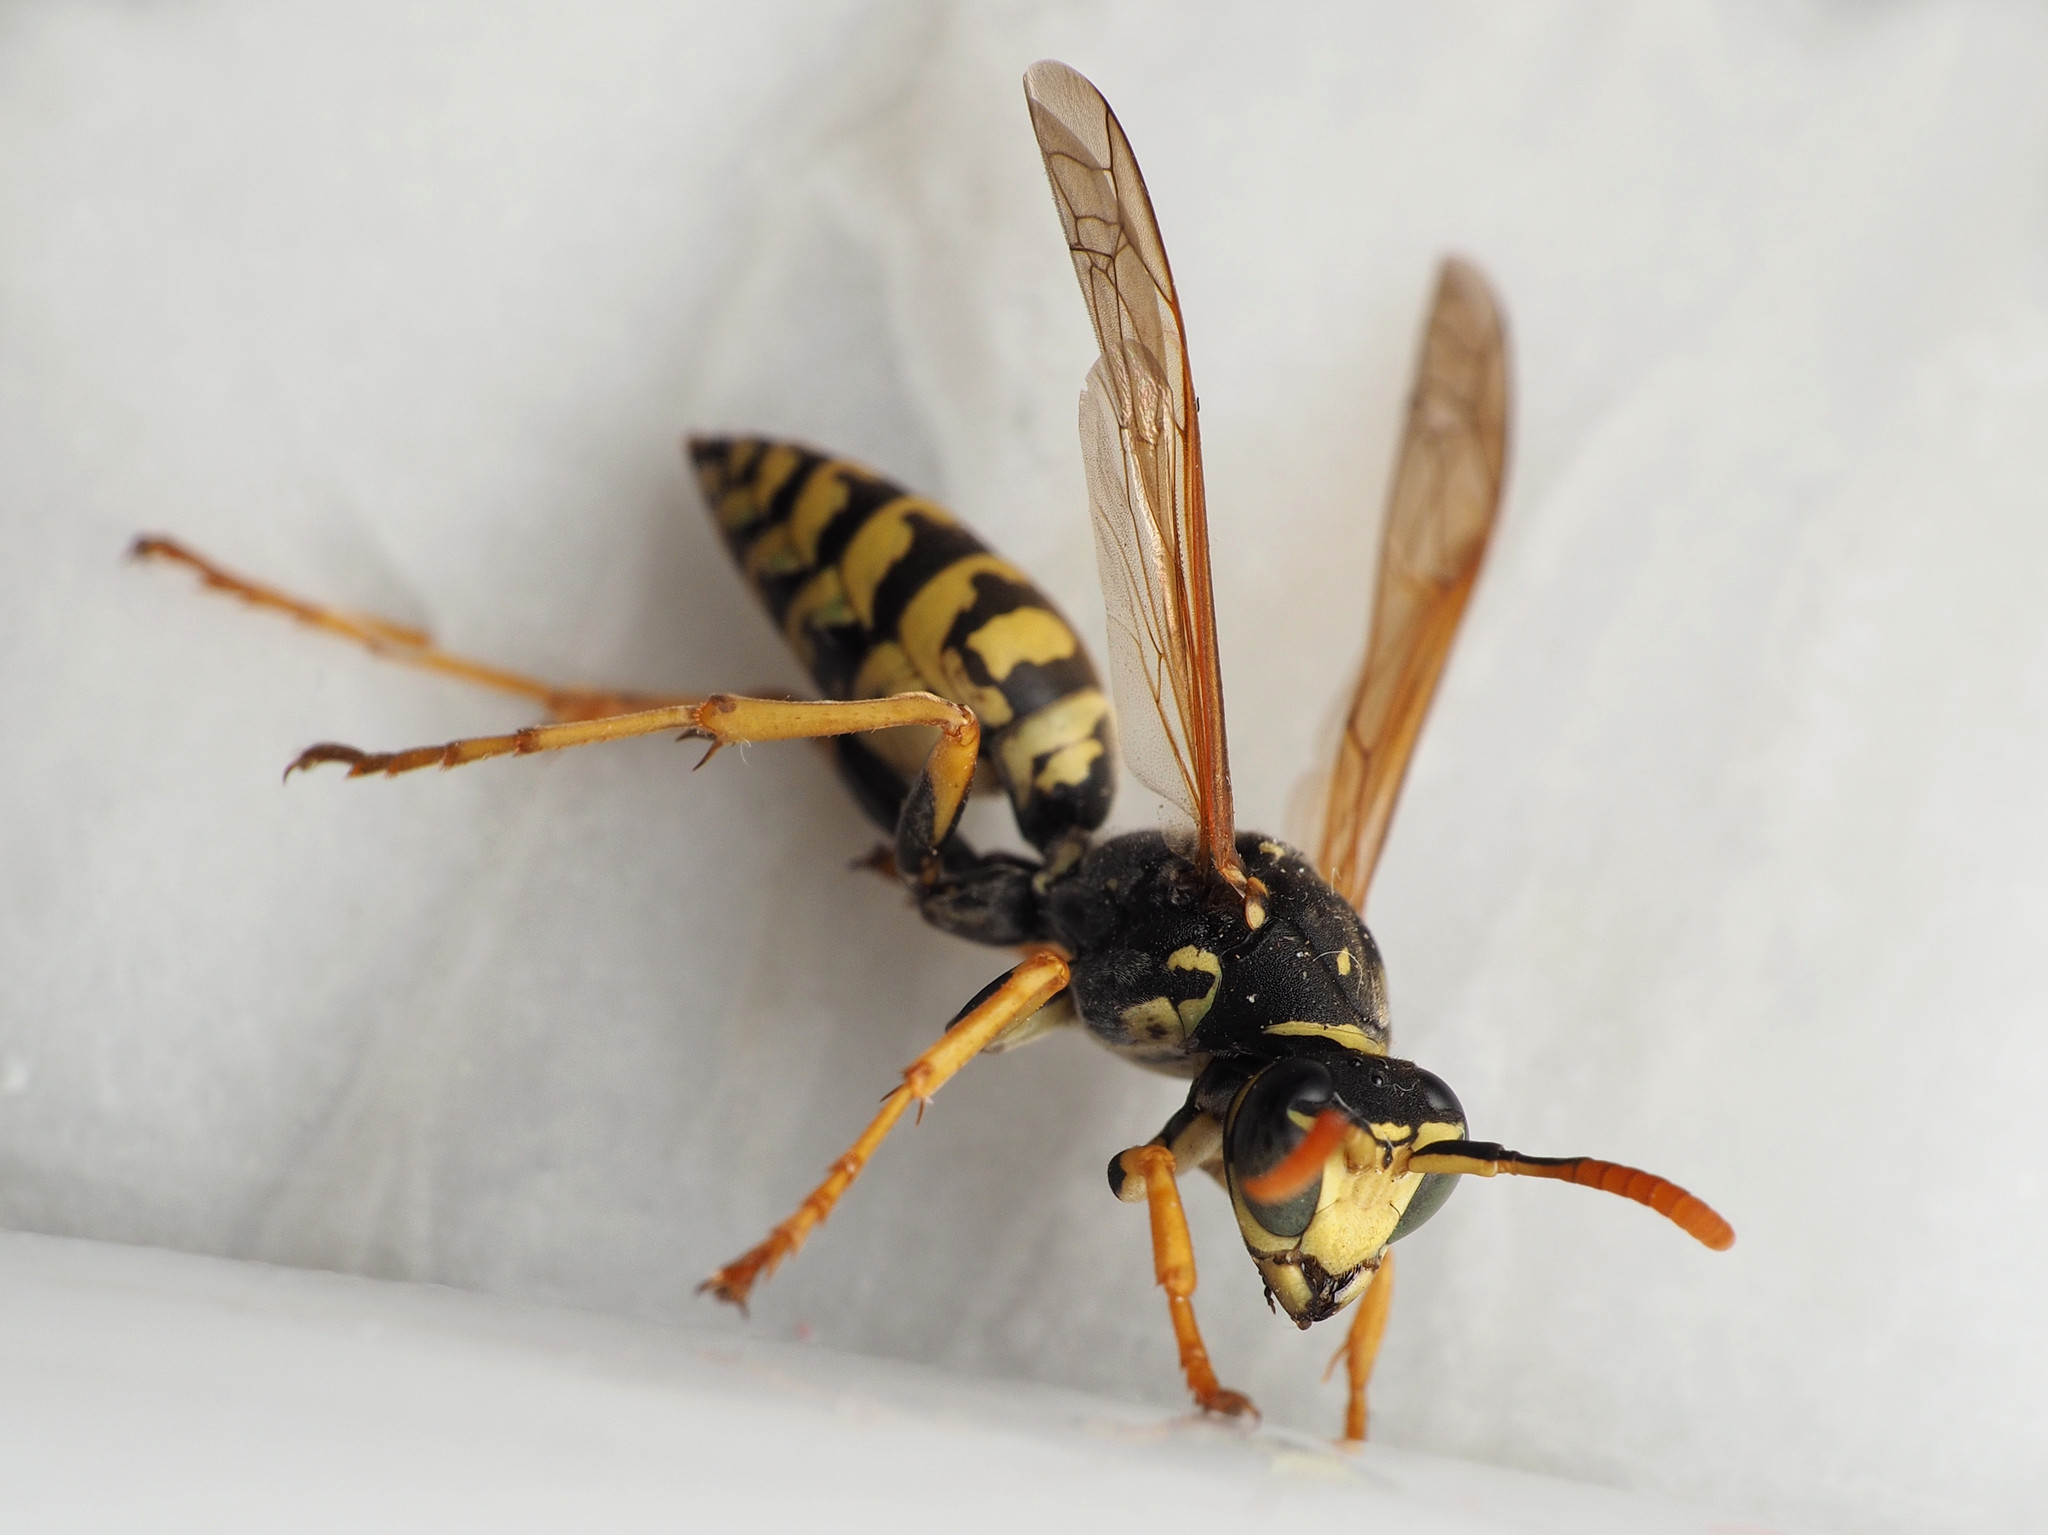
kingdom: Animalia
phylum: Arthropoda
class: Insecta
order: Hymenoptera
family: Eumenidae
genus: Polistes
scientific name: Polistes dominula
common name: Paper wasp
